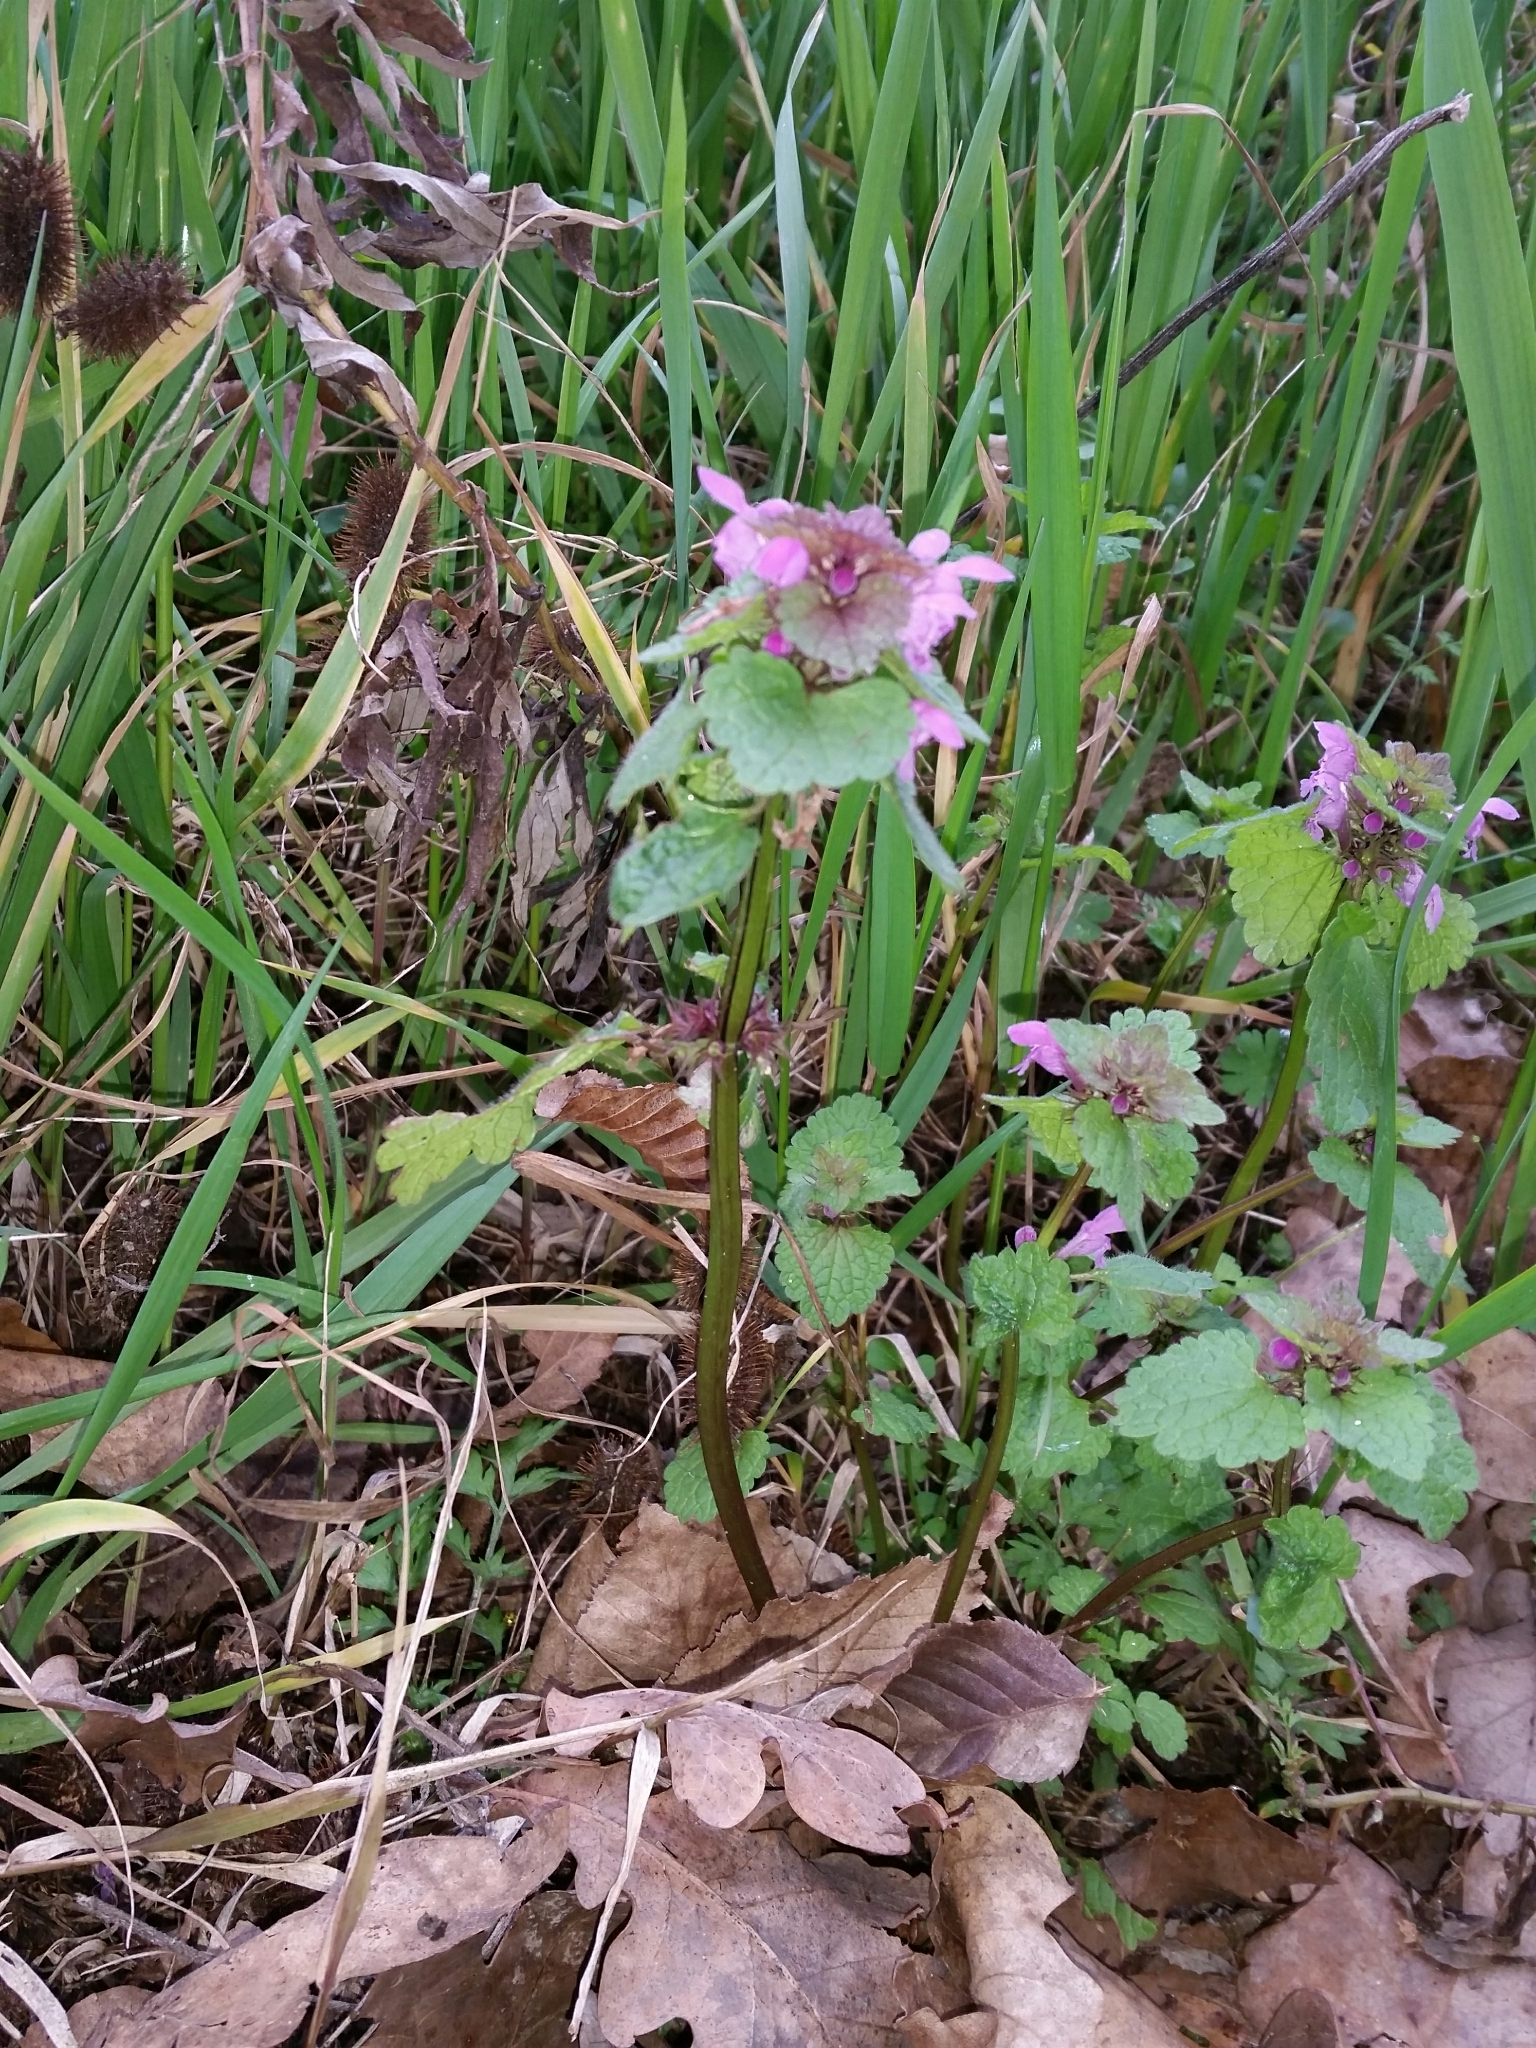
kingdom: Plantae
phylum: Tracheophyta
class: Magnoliopsida
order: Lamiales
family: Lamiaceae
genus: Lamium
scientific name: Lamium purpureum
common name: Red dead-nettle
